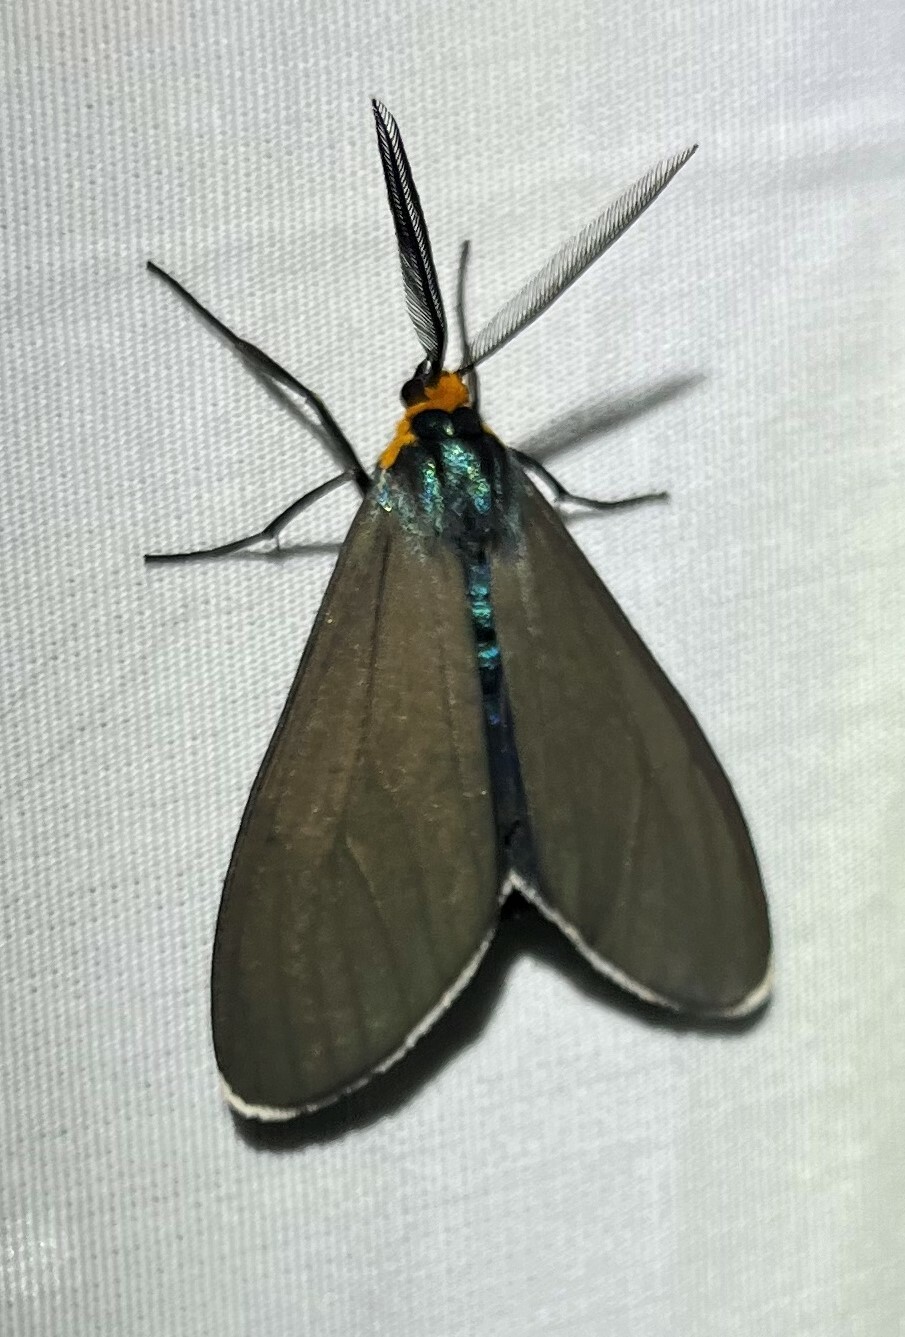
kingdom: Animalia
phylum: Arthropoda
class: Insecta
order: Lepidoptera
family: Erebidae
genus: Ctenucha
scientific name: Ctenucha virginica
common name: Virginia ctenucha moth
